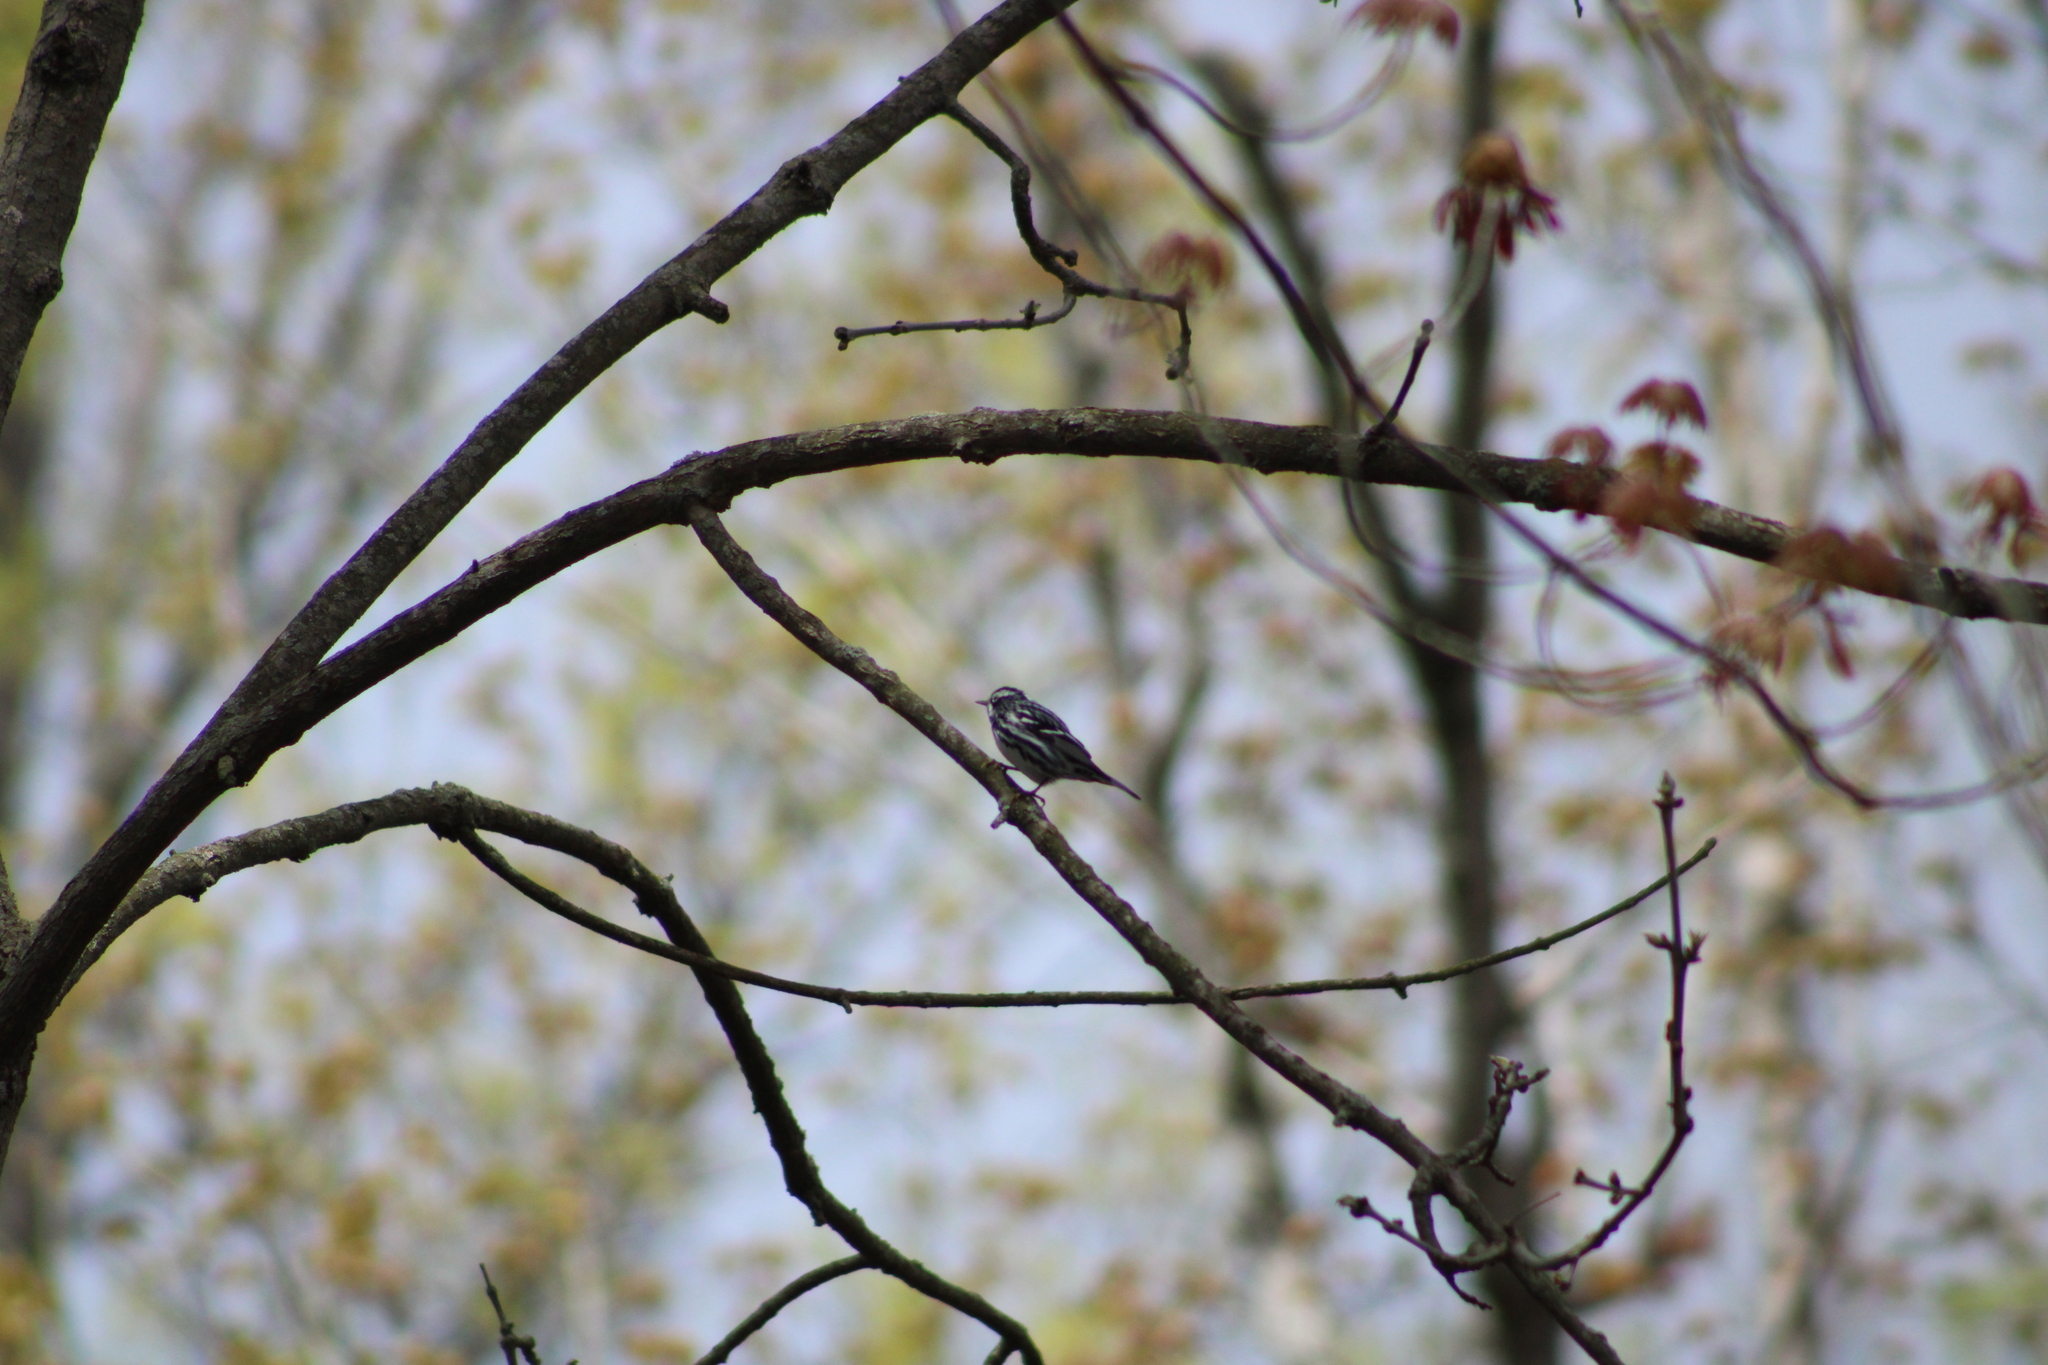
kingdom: Animalia
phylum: Chordata
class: Aves
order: Passeriformes
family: Parulidae
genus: Mniotilta
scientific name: Mniotilta varia
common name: Black-and-white warbler
